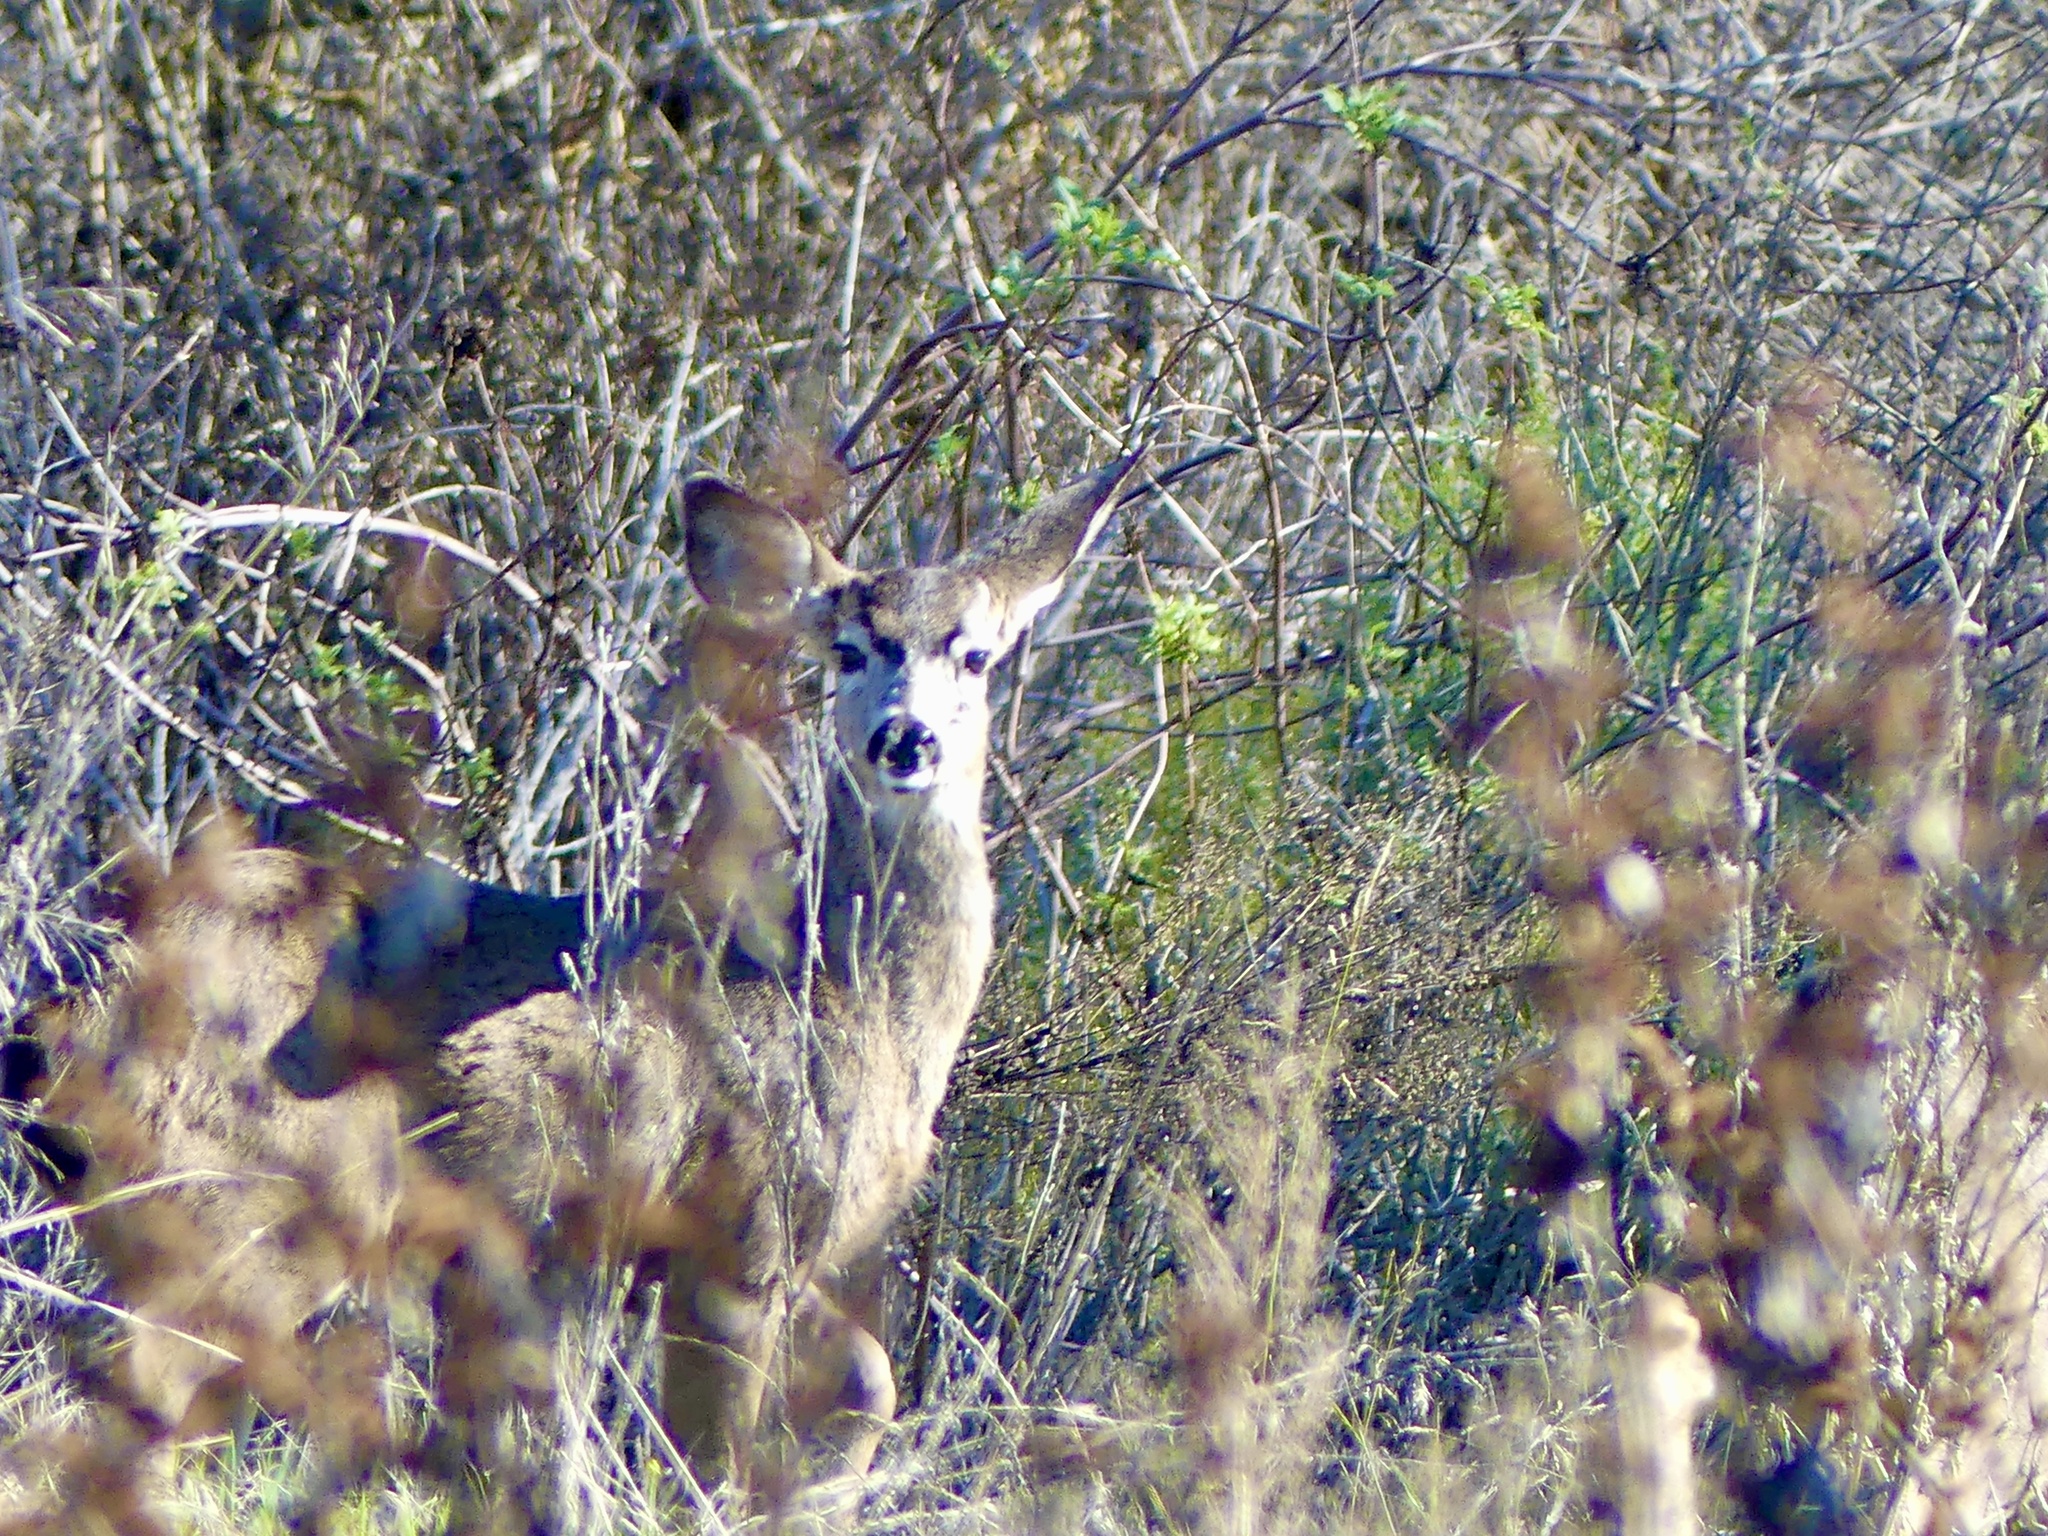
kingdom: Animalia
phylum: Chordata
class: Mammalia
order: Artiodactyla
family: Cervidae
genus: Odocoileus
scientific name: Odocoileus hemionus
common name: Mule deer
